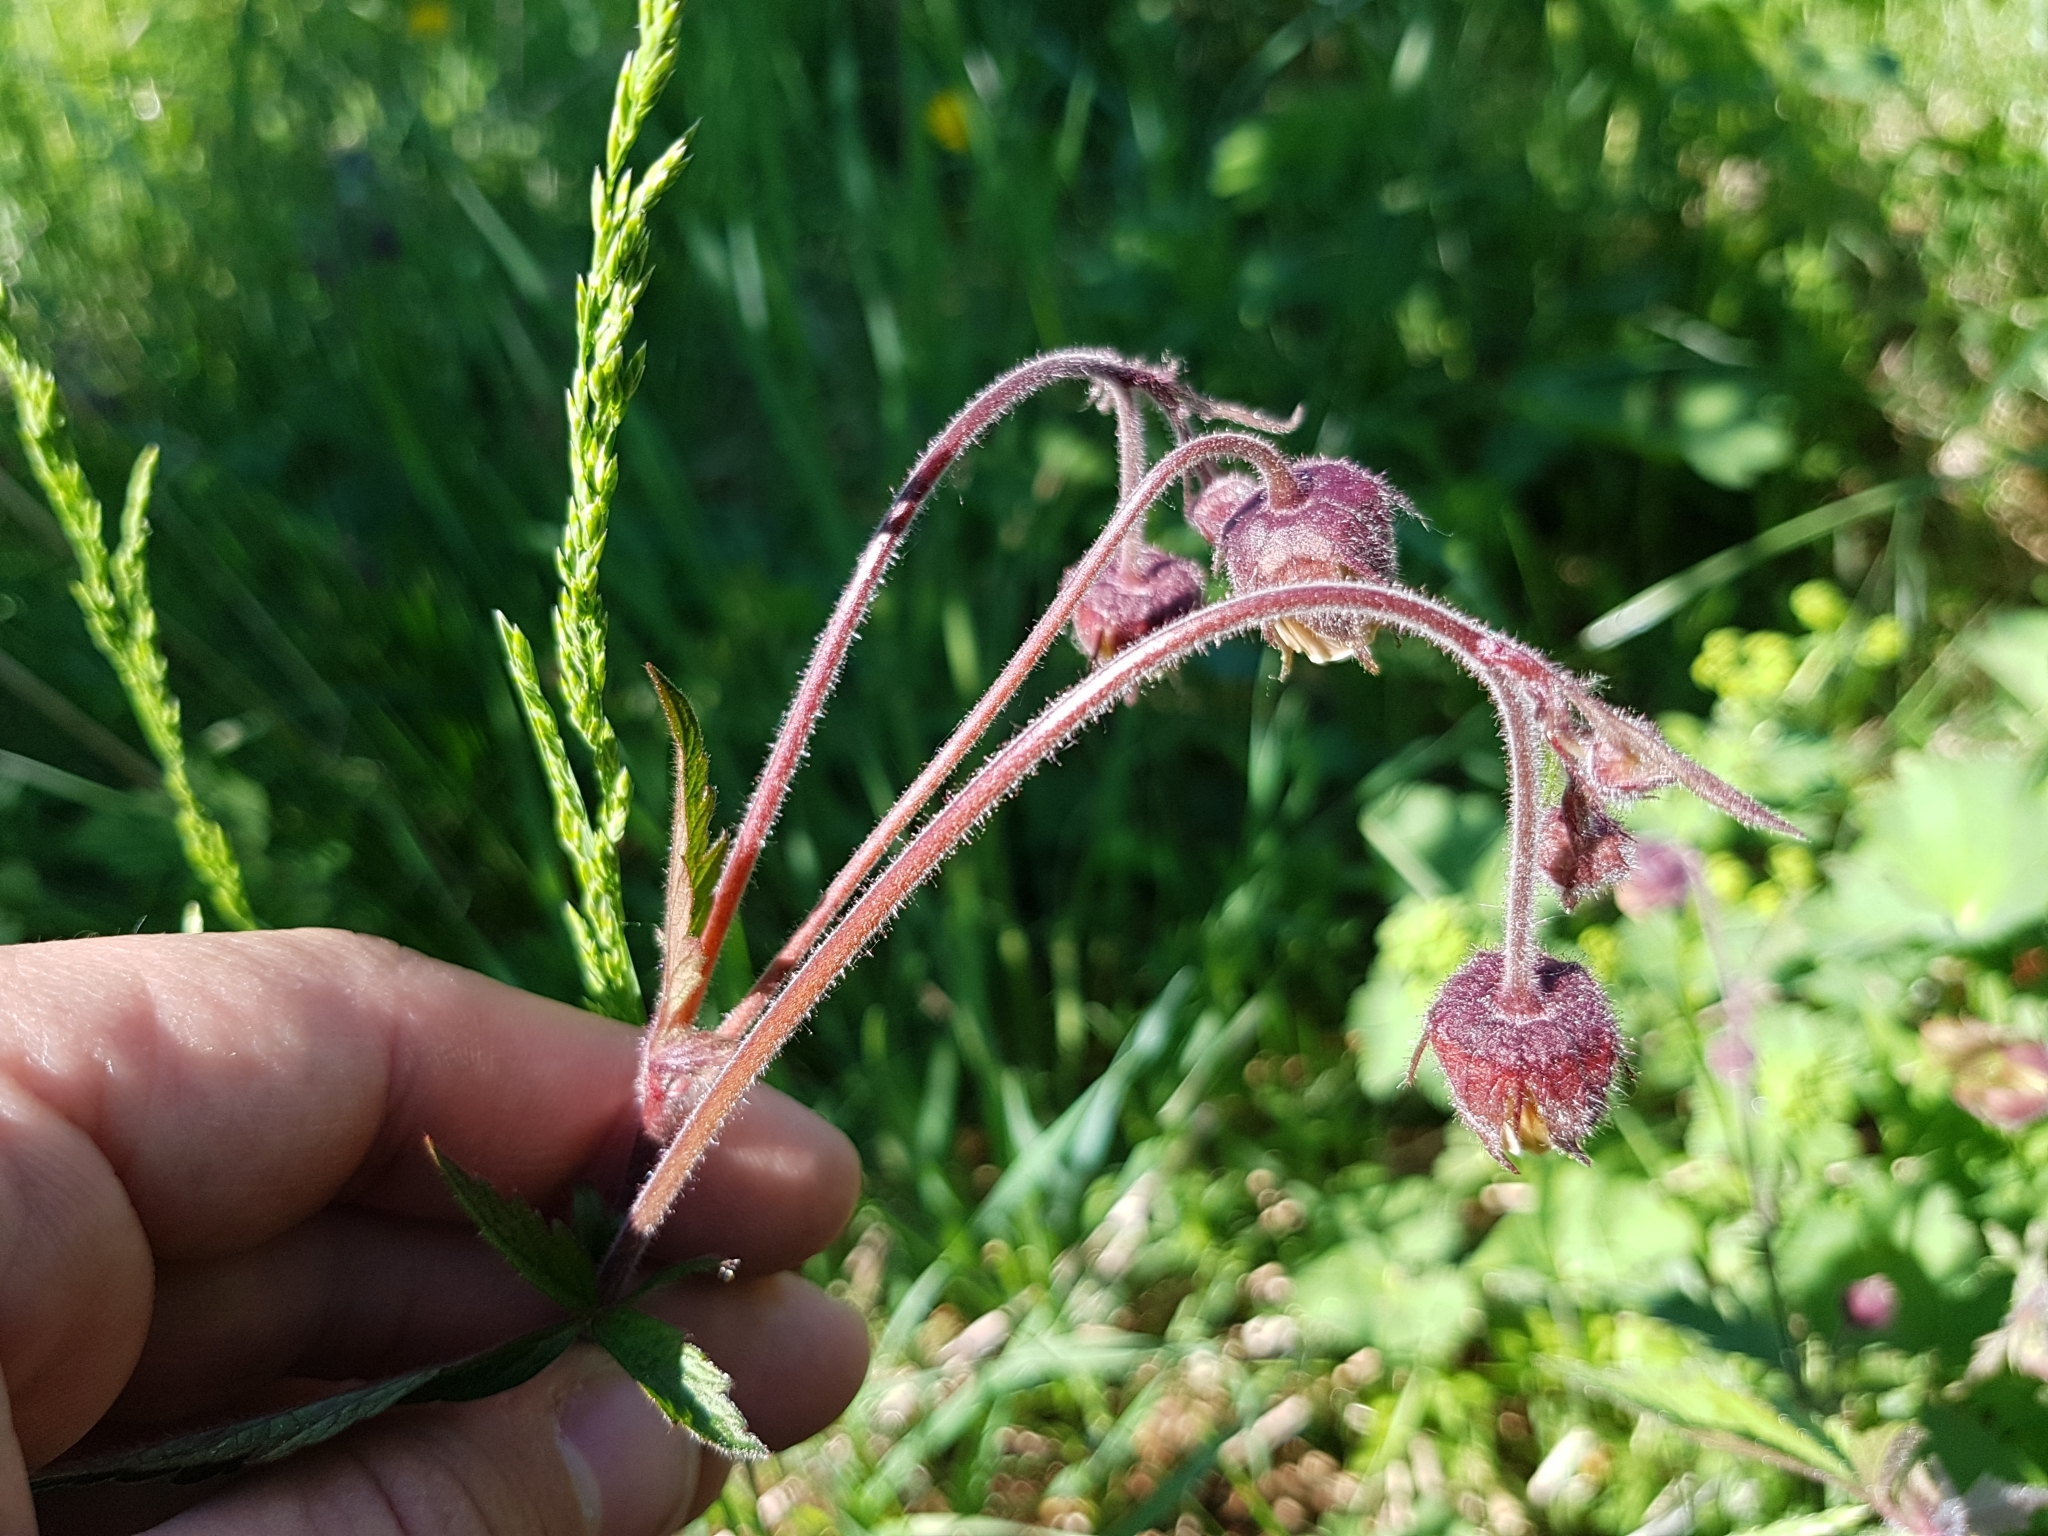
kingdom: Plantae
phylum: Tracheophyta
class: Magnoliopsida
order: Rosales
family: Rosaceae
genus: Geum
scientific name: Geum rivale
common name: Water avens
